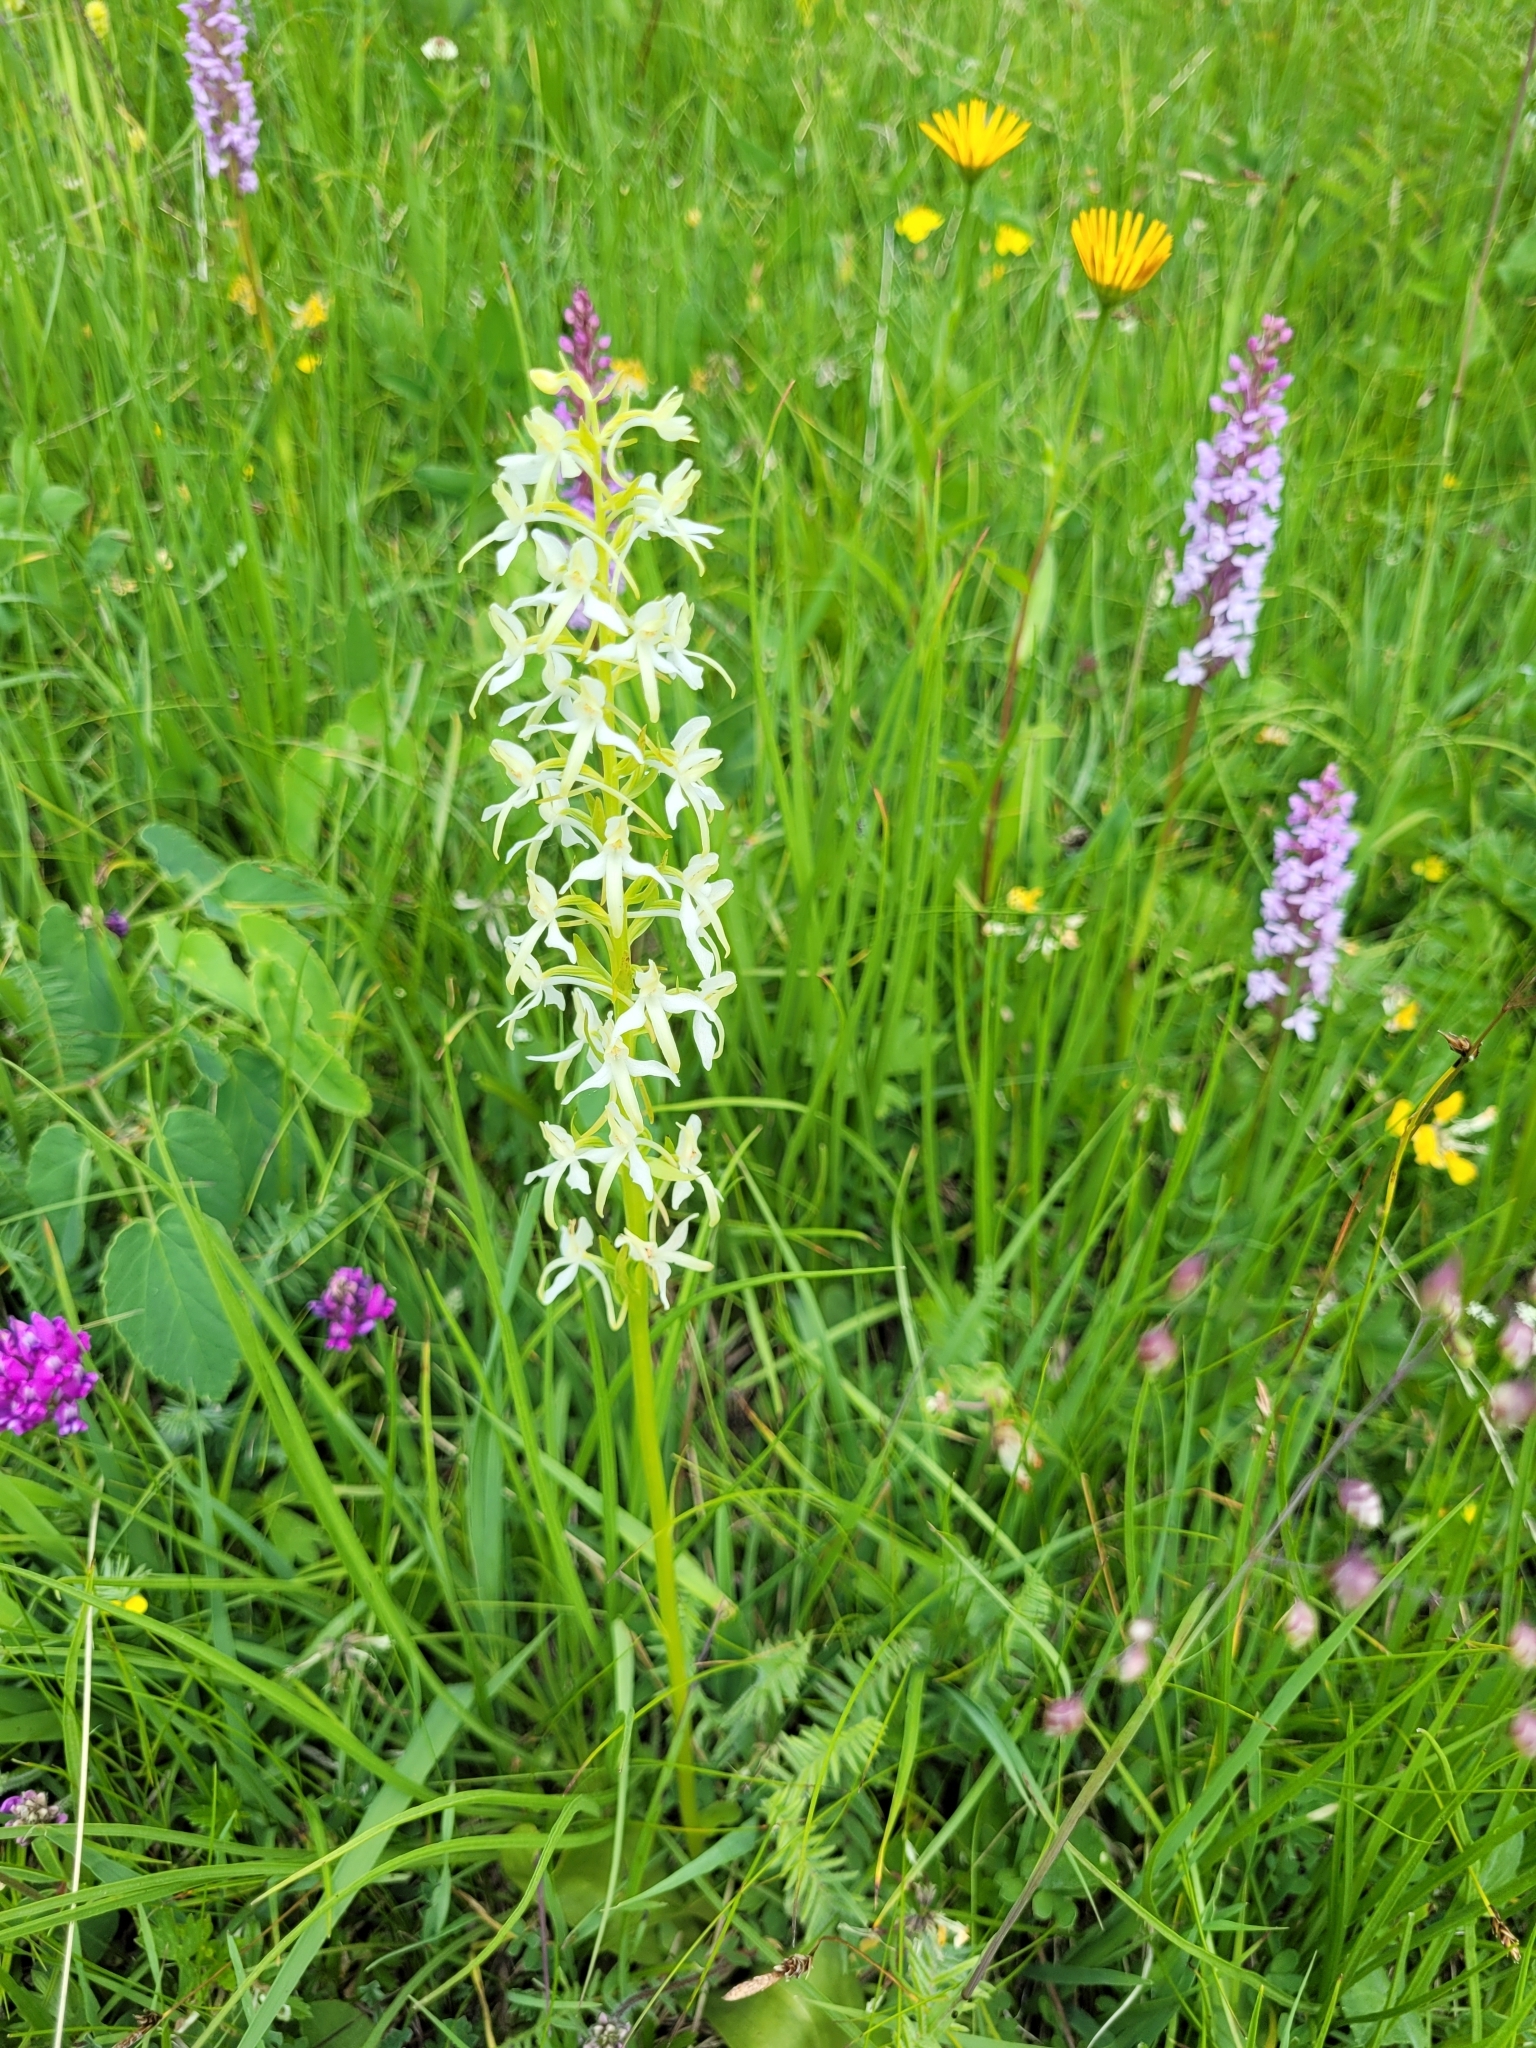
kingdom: Plantae
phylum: Tracheophyta
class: Liliopsida
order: Asparagales
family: Orchidaceae
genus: Platanthera
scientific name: Platanthera bifolia
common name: Lesser butterfly-orchid
